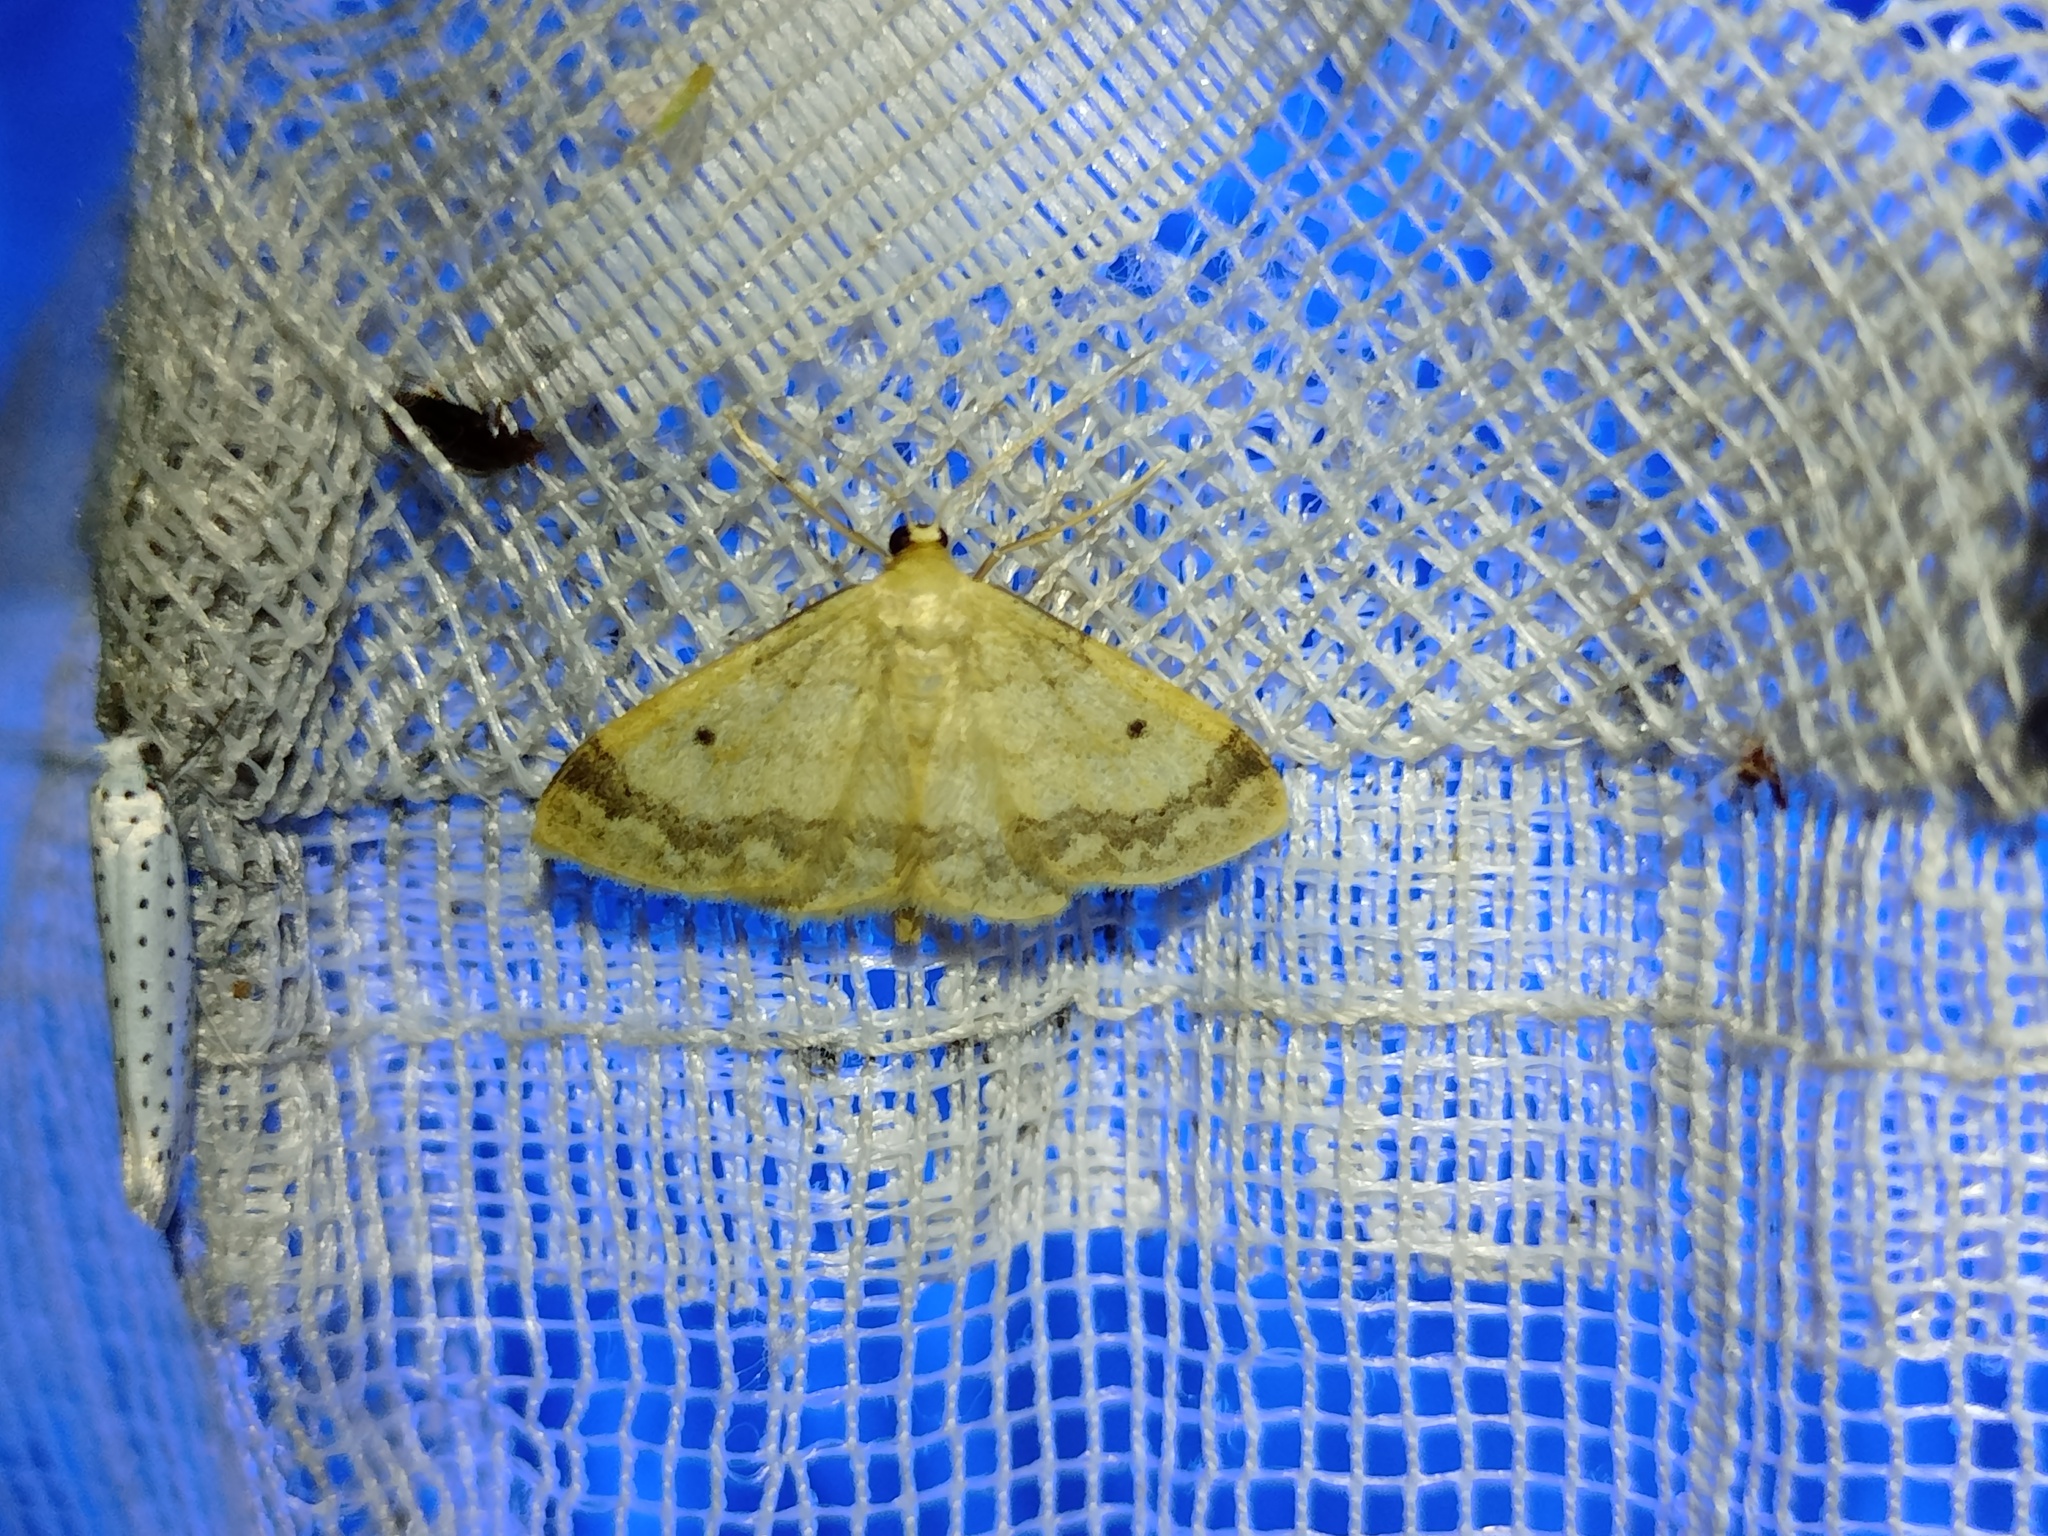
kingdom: Animalia
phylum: Arthropoda
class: Insecta
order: Lepidoptera
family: Geometridae
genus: Idaea
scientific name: Idaea biselata
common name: Small fan-footed wave
